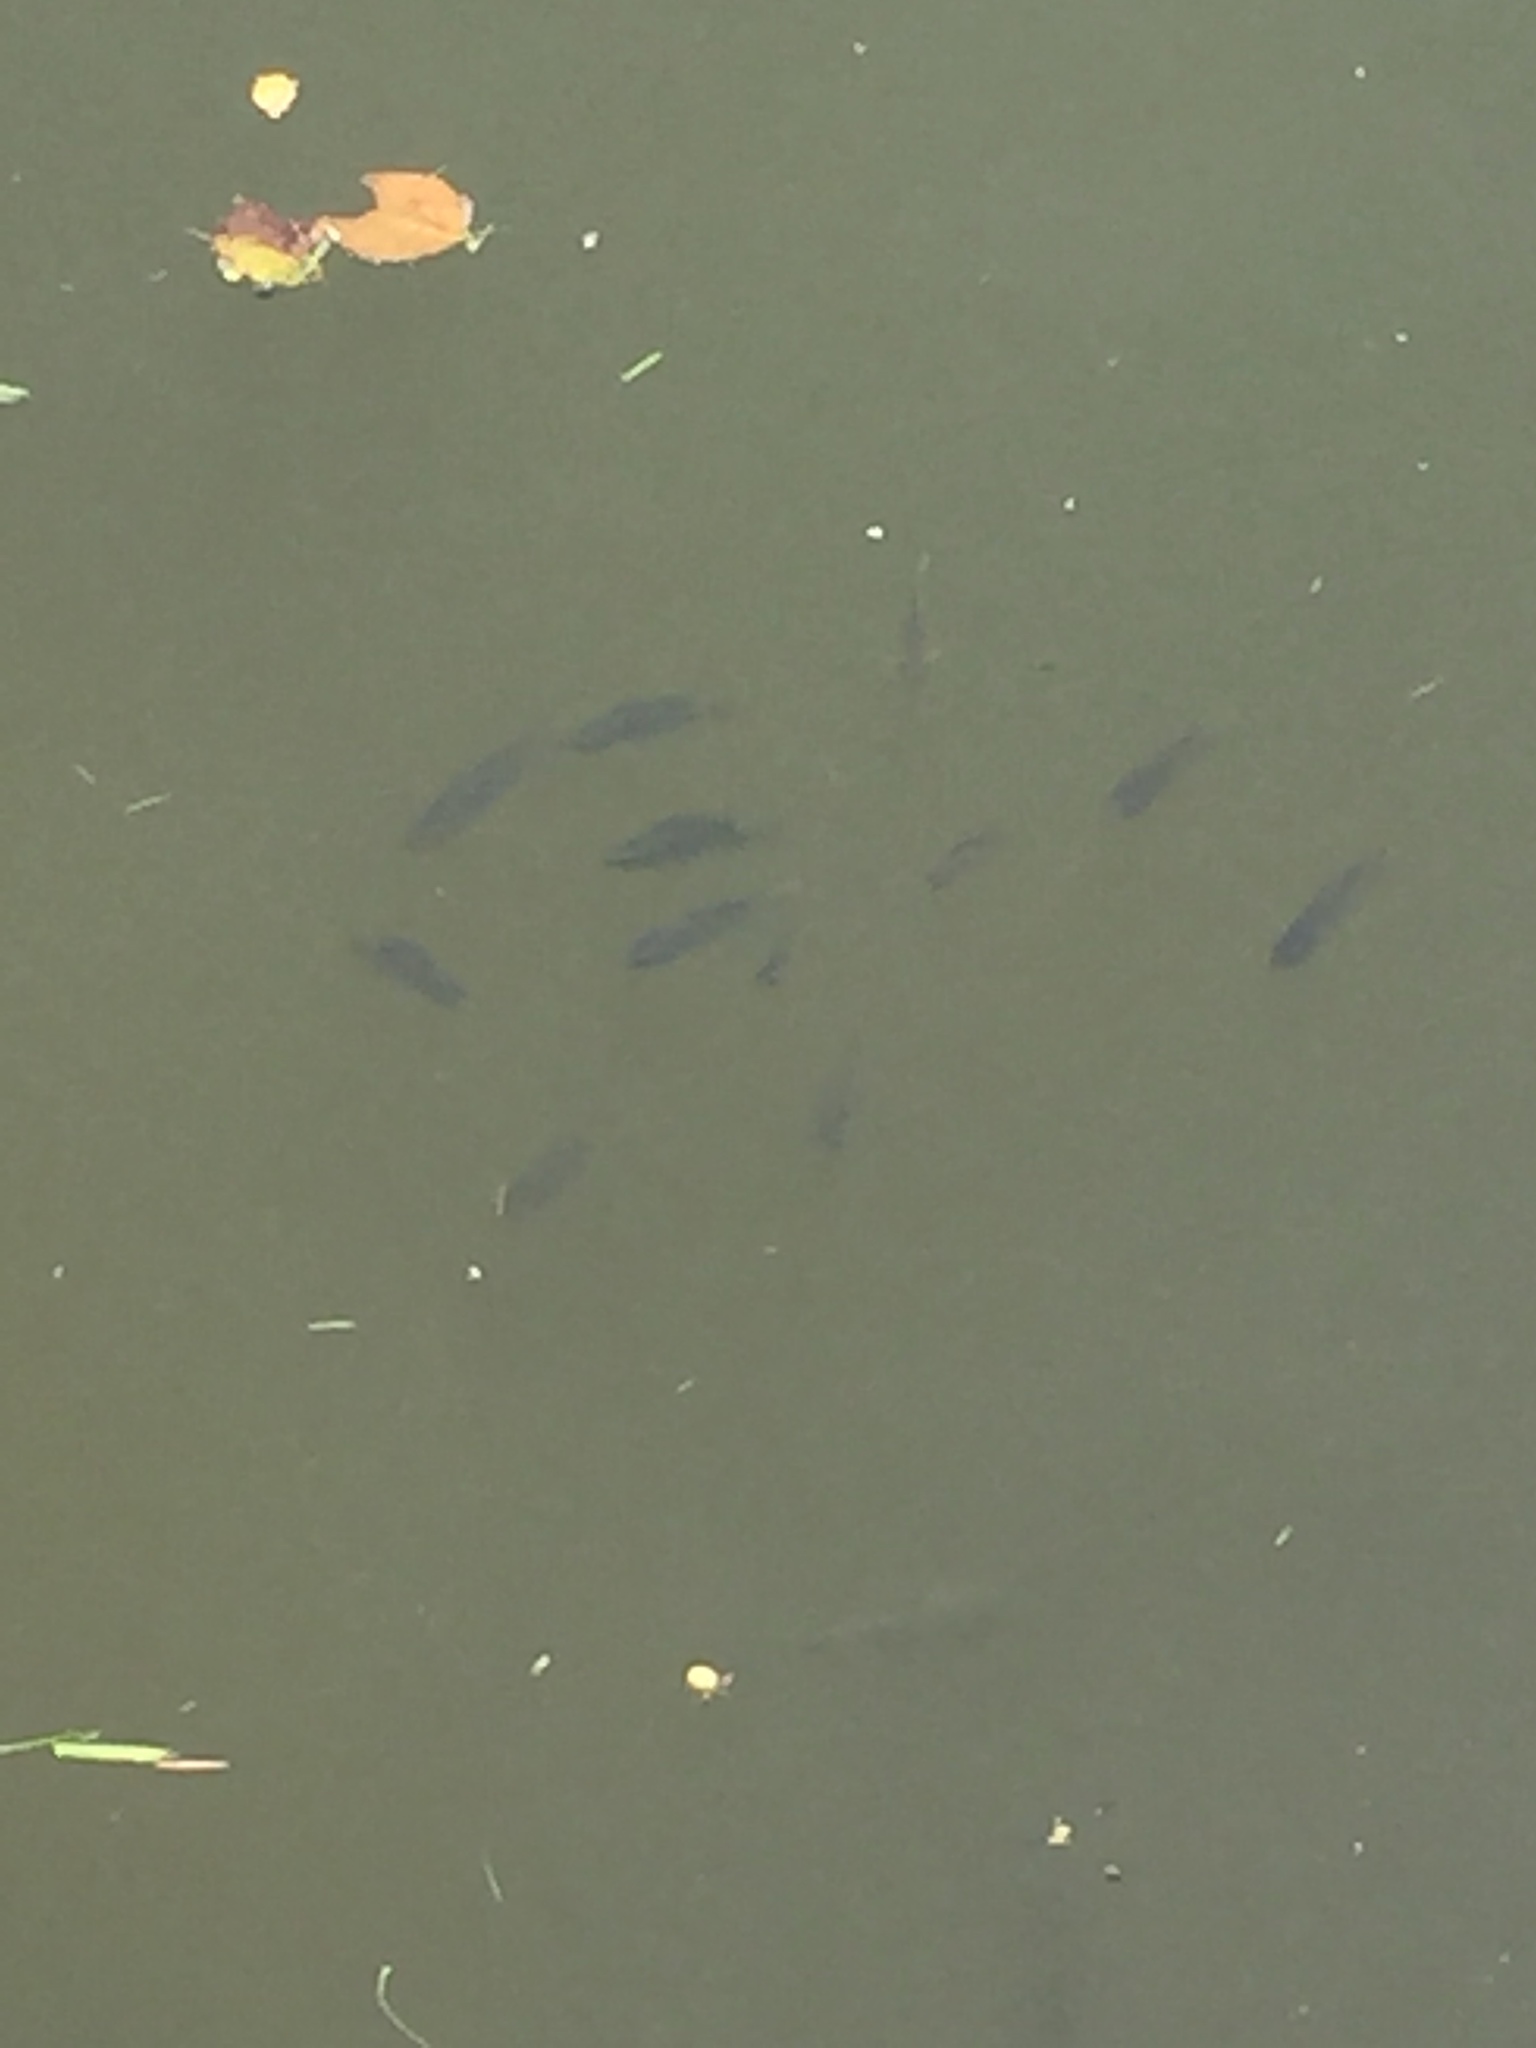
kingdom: Animalia
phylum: Chordata
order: Perciformes
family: Cichlidae
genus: Oreochromis
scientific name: Oreochromis niloticus
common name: Nile tilapia
